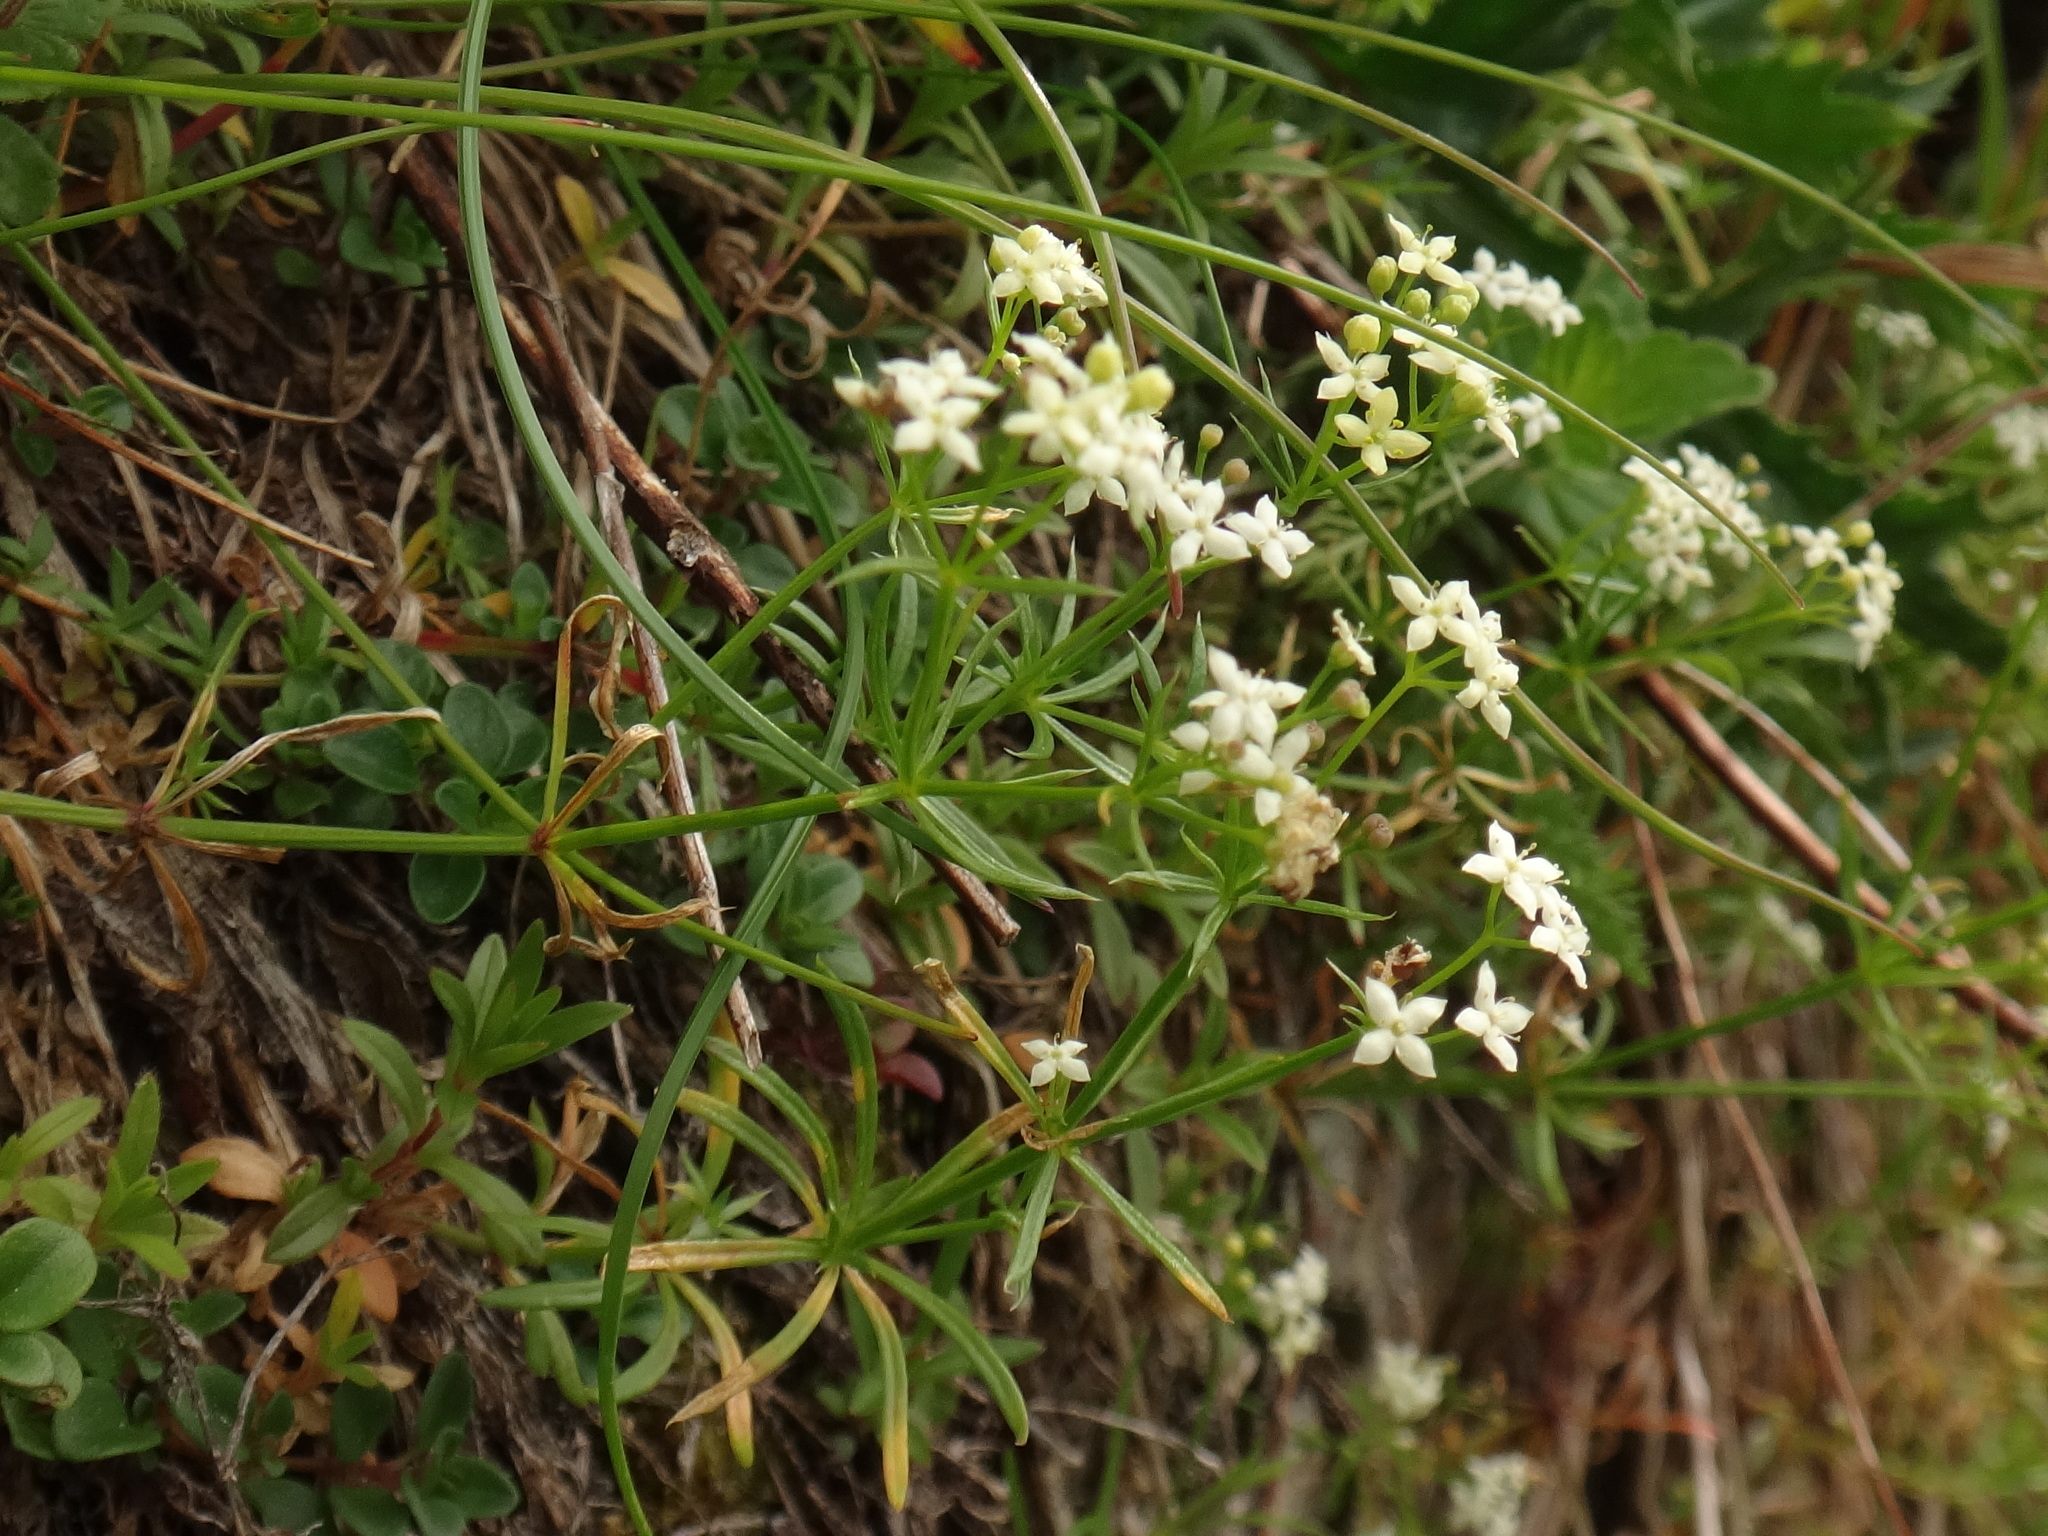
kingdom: Plantae
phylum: Tracheophyta
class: Magnoliopsida
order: Gentianales
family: Rubiaceae
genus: Galium
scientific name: Galium anisophyllon
